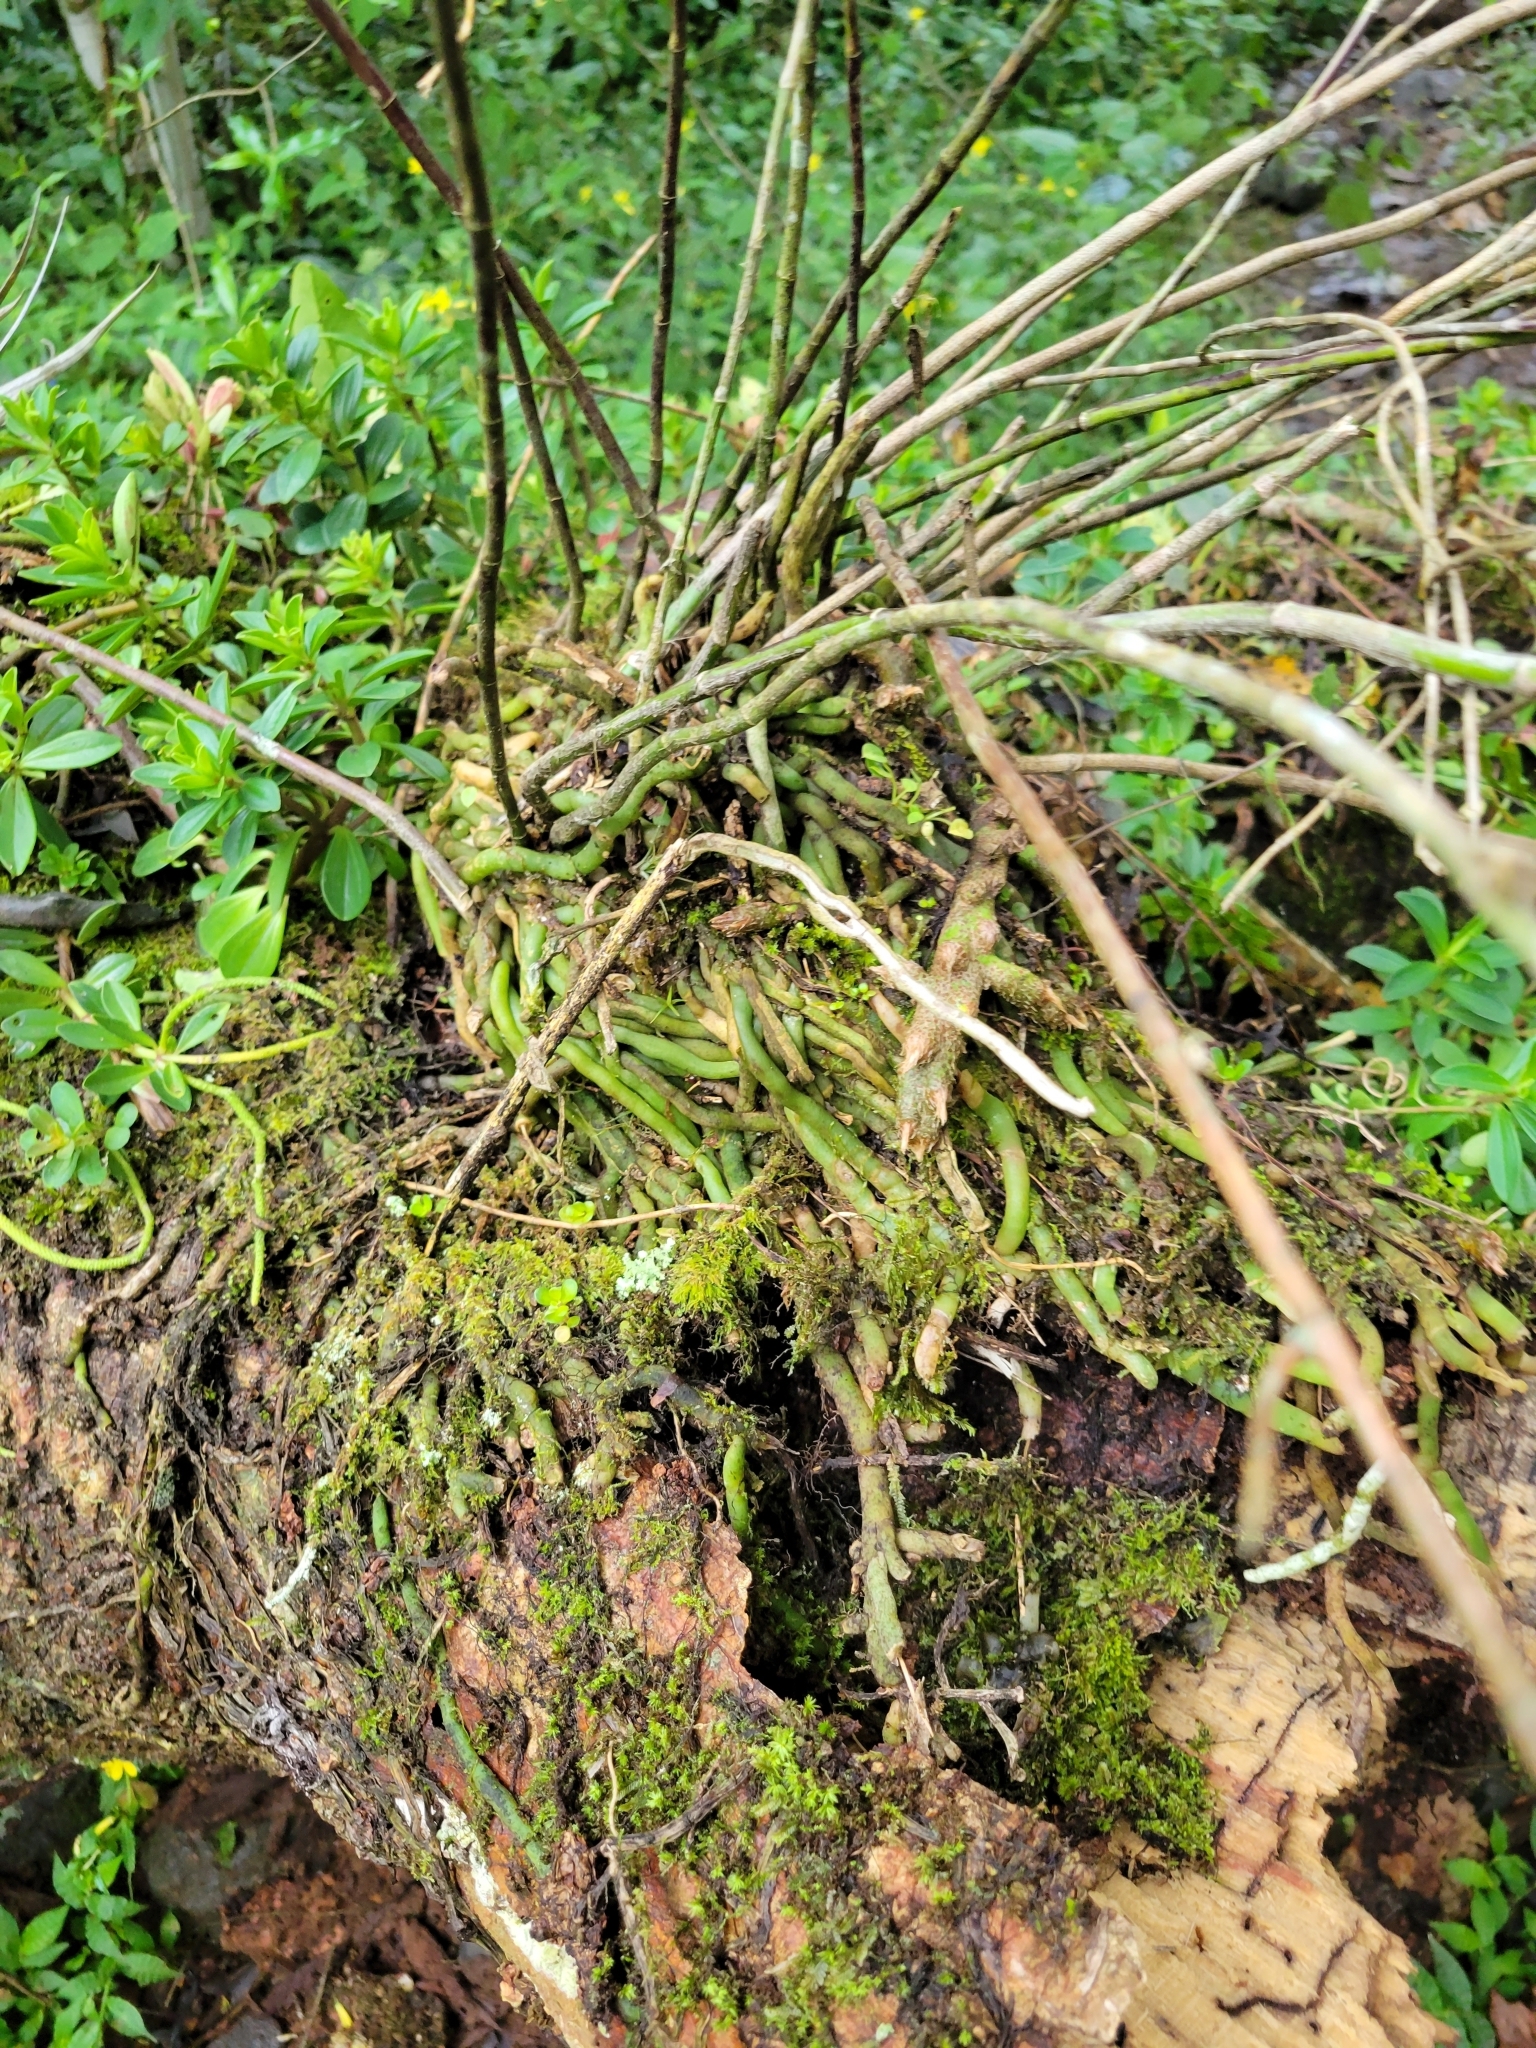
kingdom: Plantae
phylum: Tracheophyta
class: Liliopsida
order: Asparagales
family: Orchidaceae
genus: Epidendrum
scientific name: Epidendrum pentadactylum
